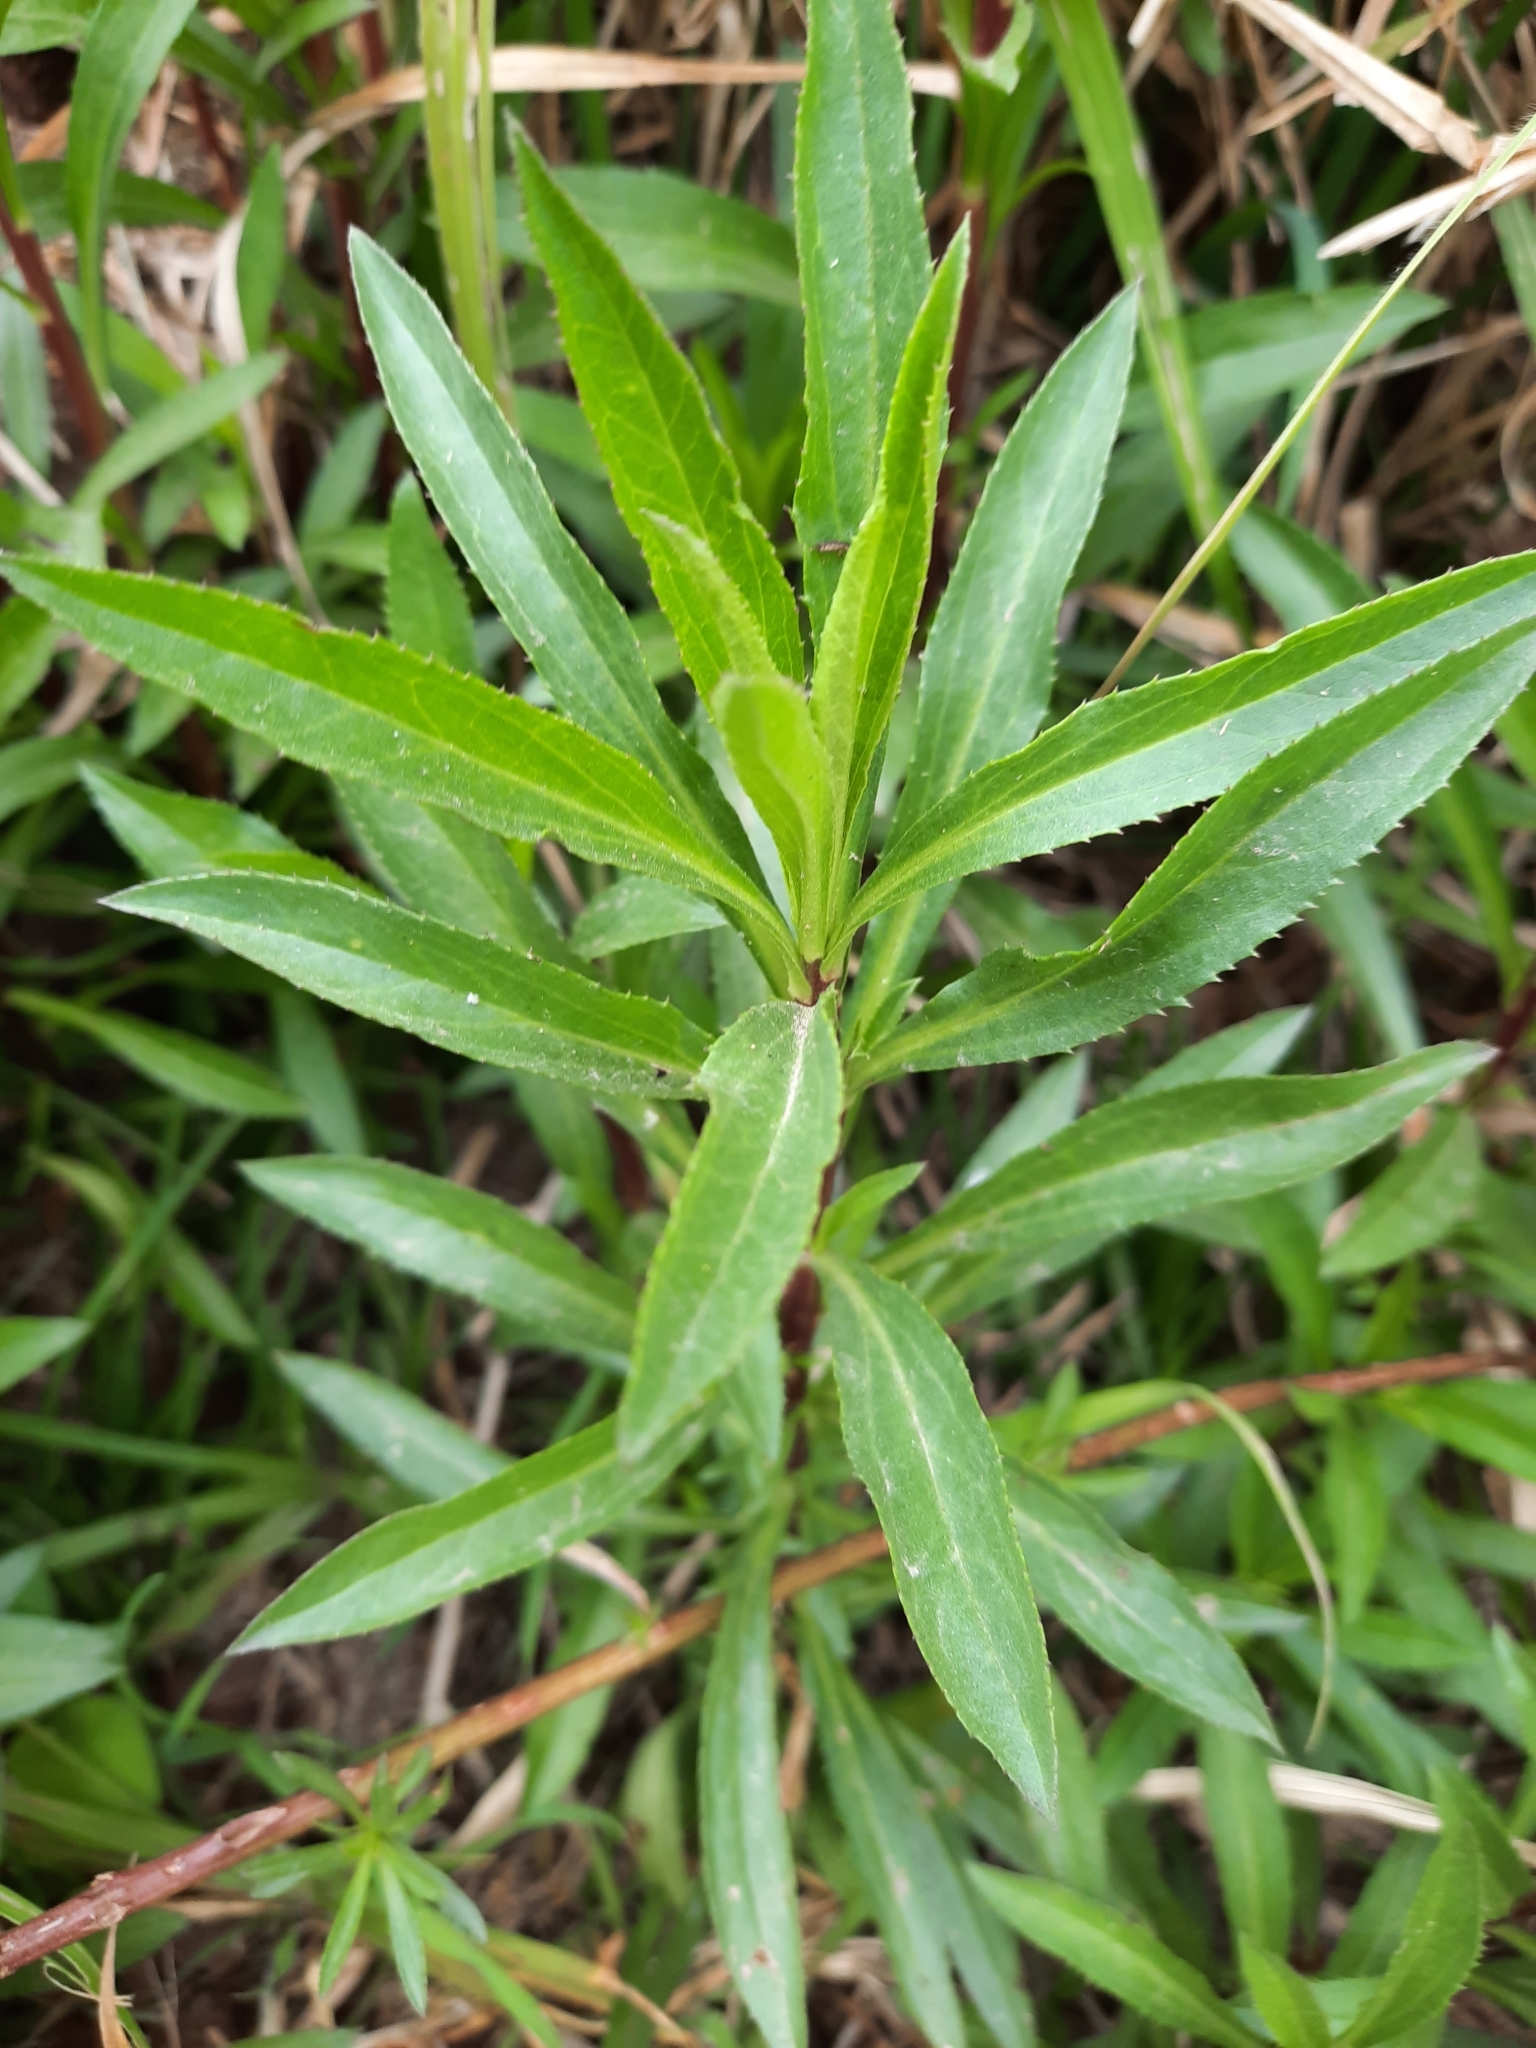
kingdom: Plantae
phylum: Tracheophyta
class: Magnoliopsida
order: Asterales
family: Asteraceae
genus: Baccharis
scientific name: Baccharis punctulata
